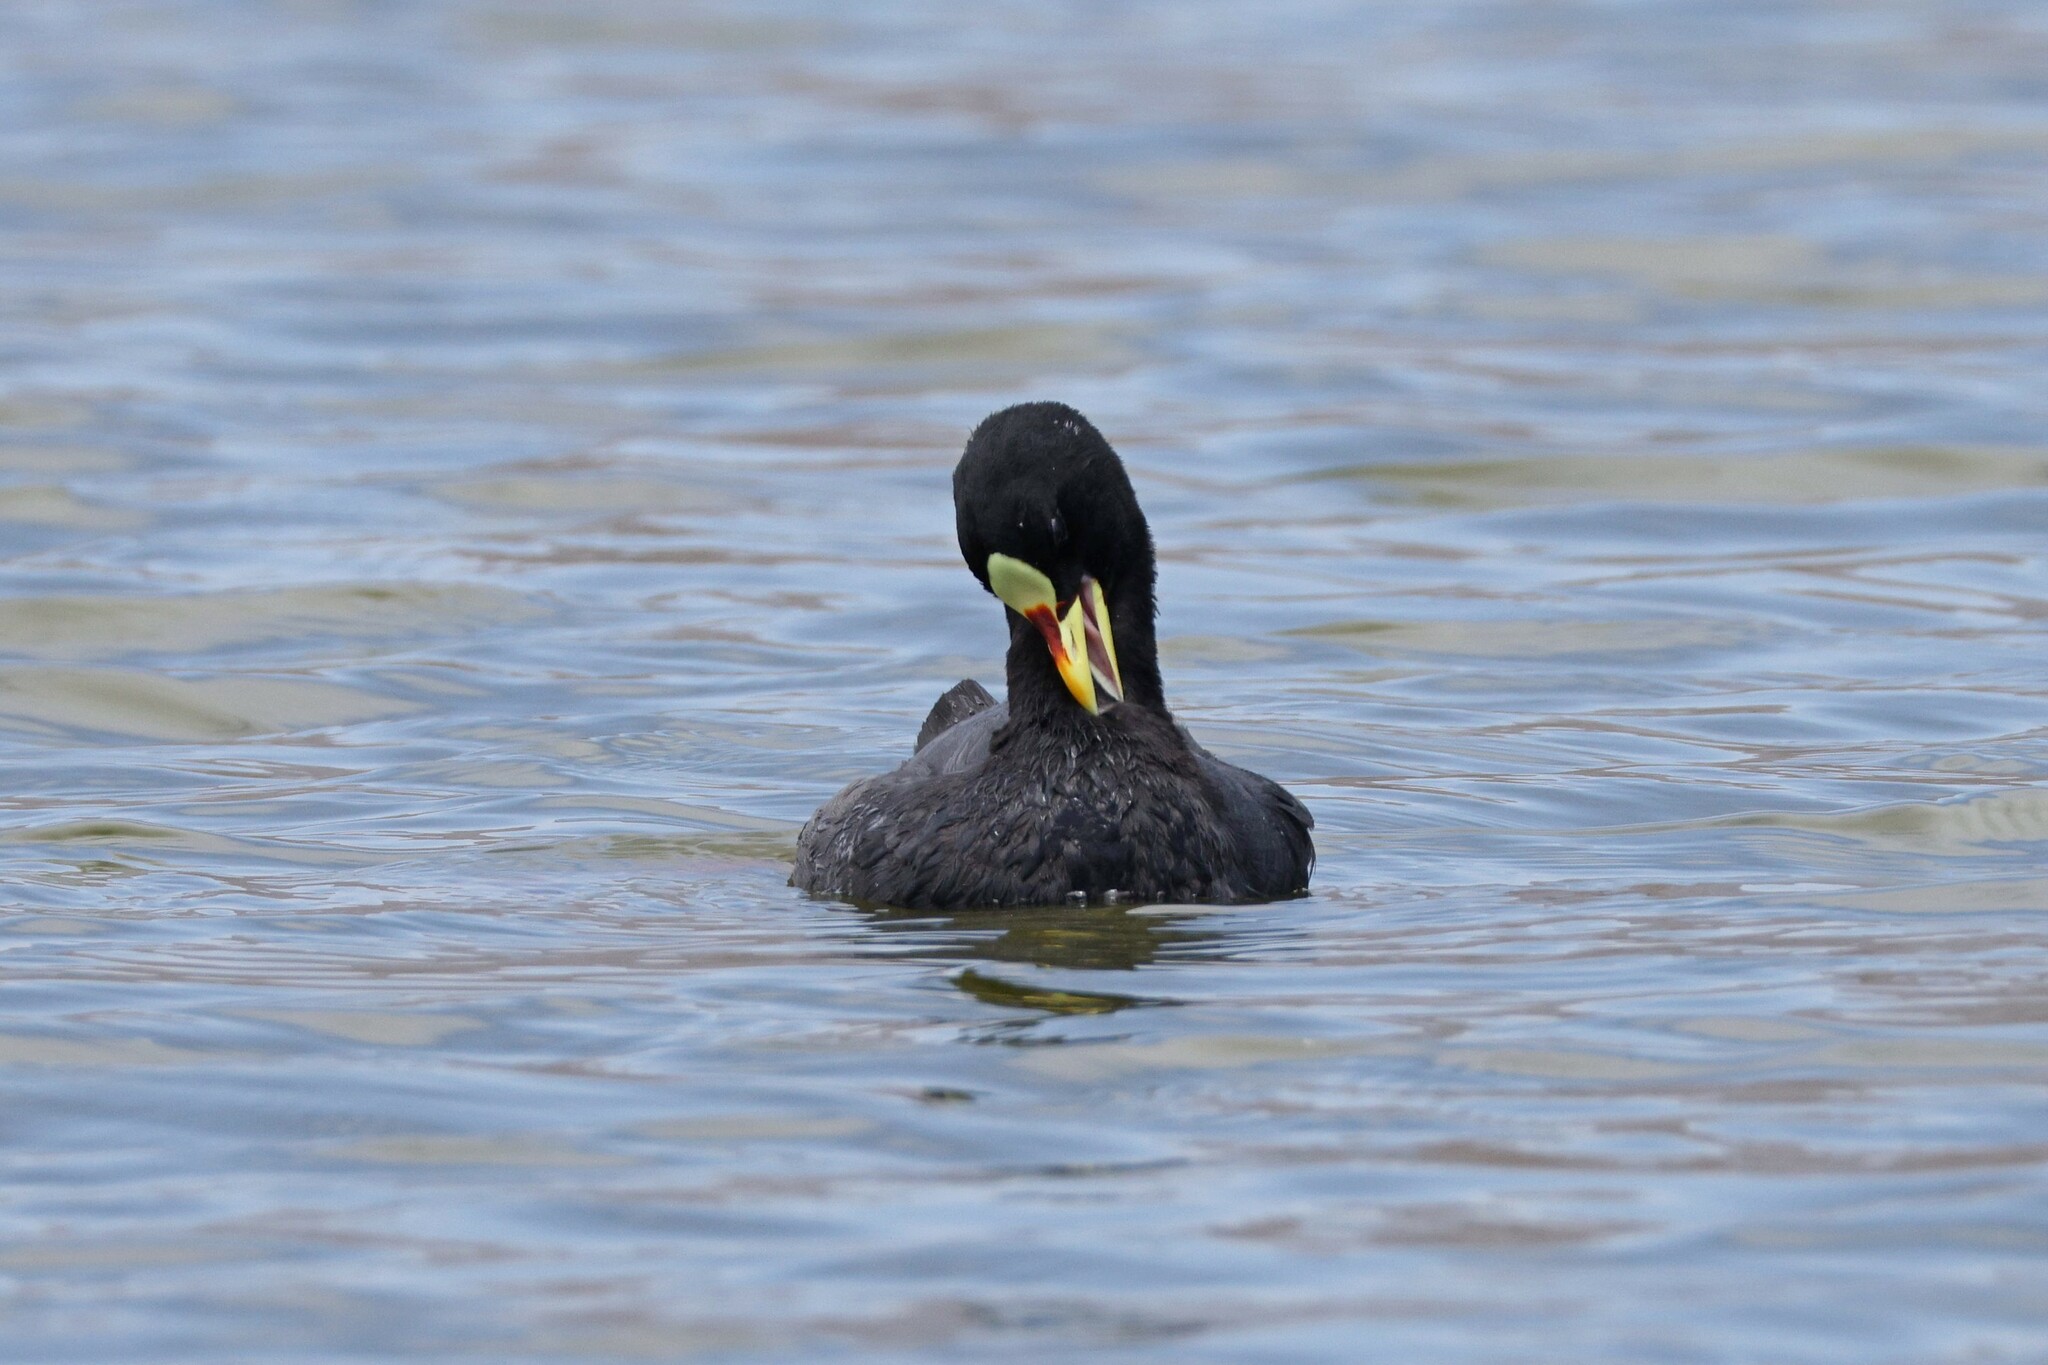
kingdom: Animalia
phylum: Chordata
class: Aves
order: Gruiformes
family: Rallidae
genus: Fulica
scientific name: Fulica armillata
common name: Red-gartered coot
